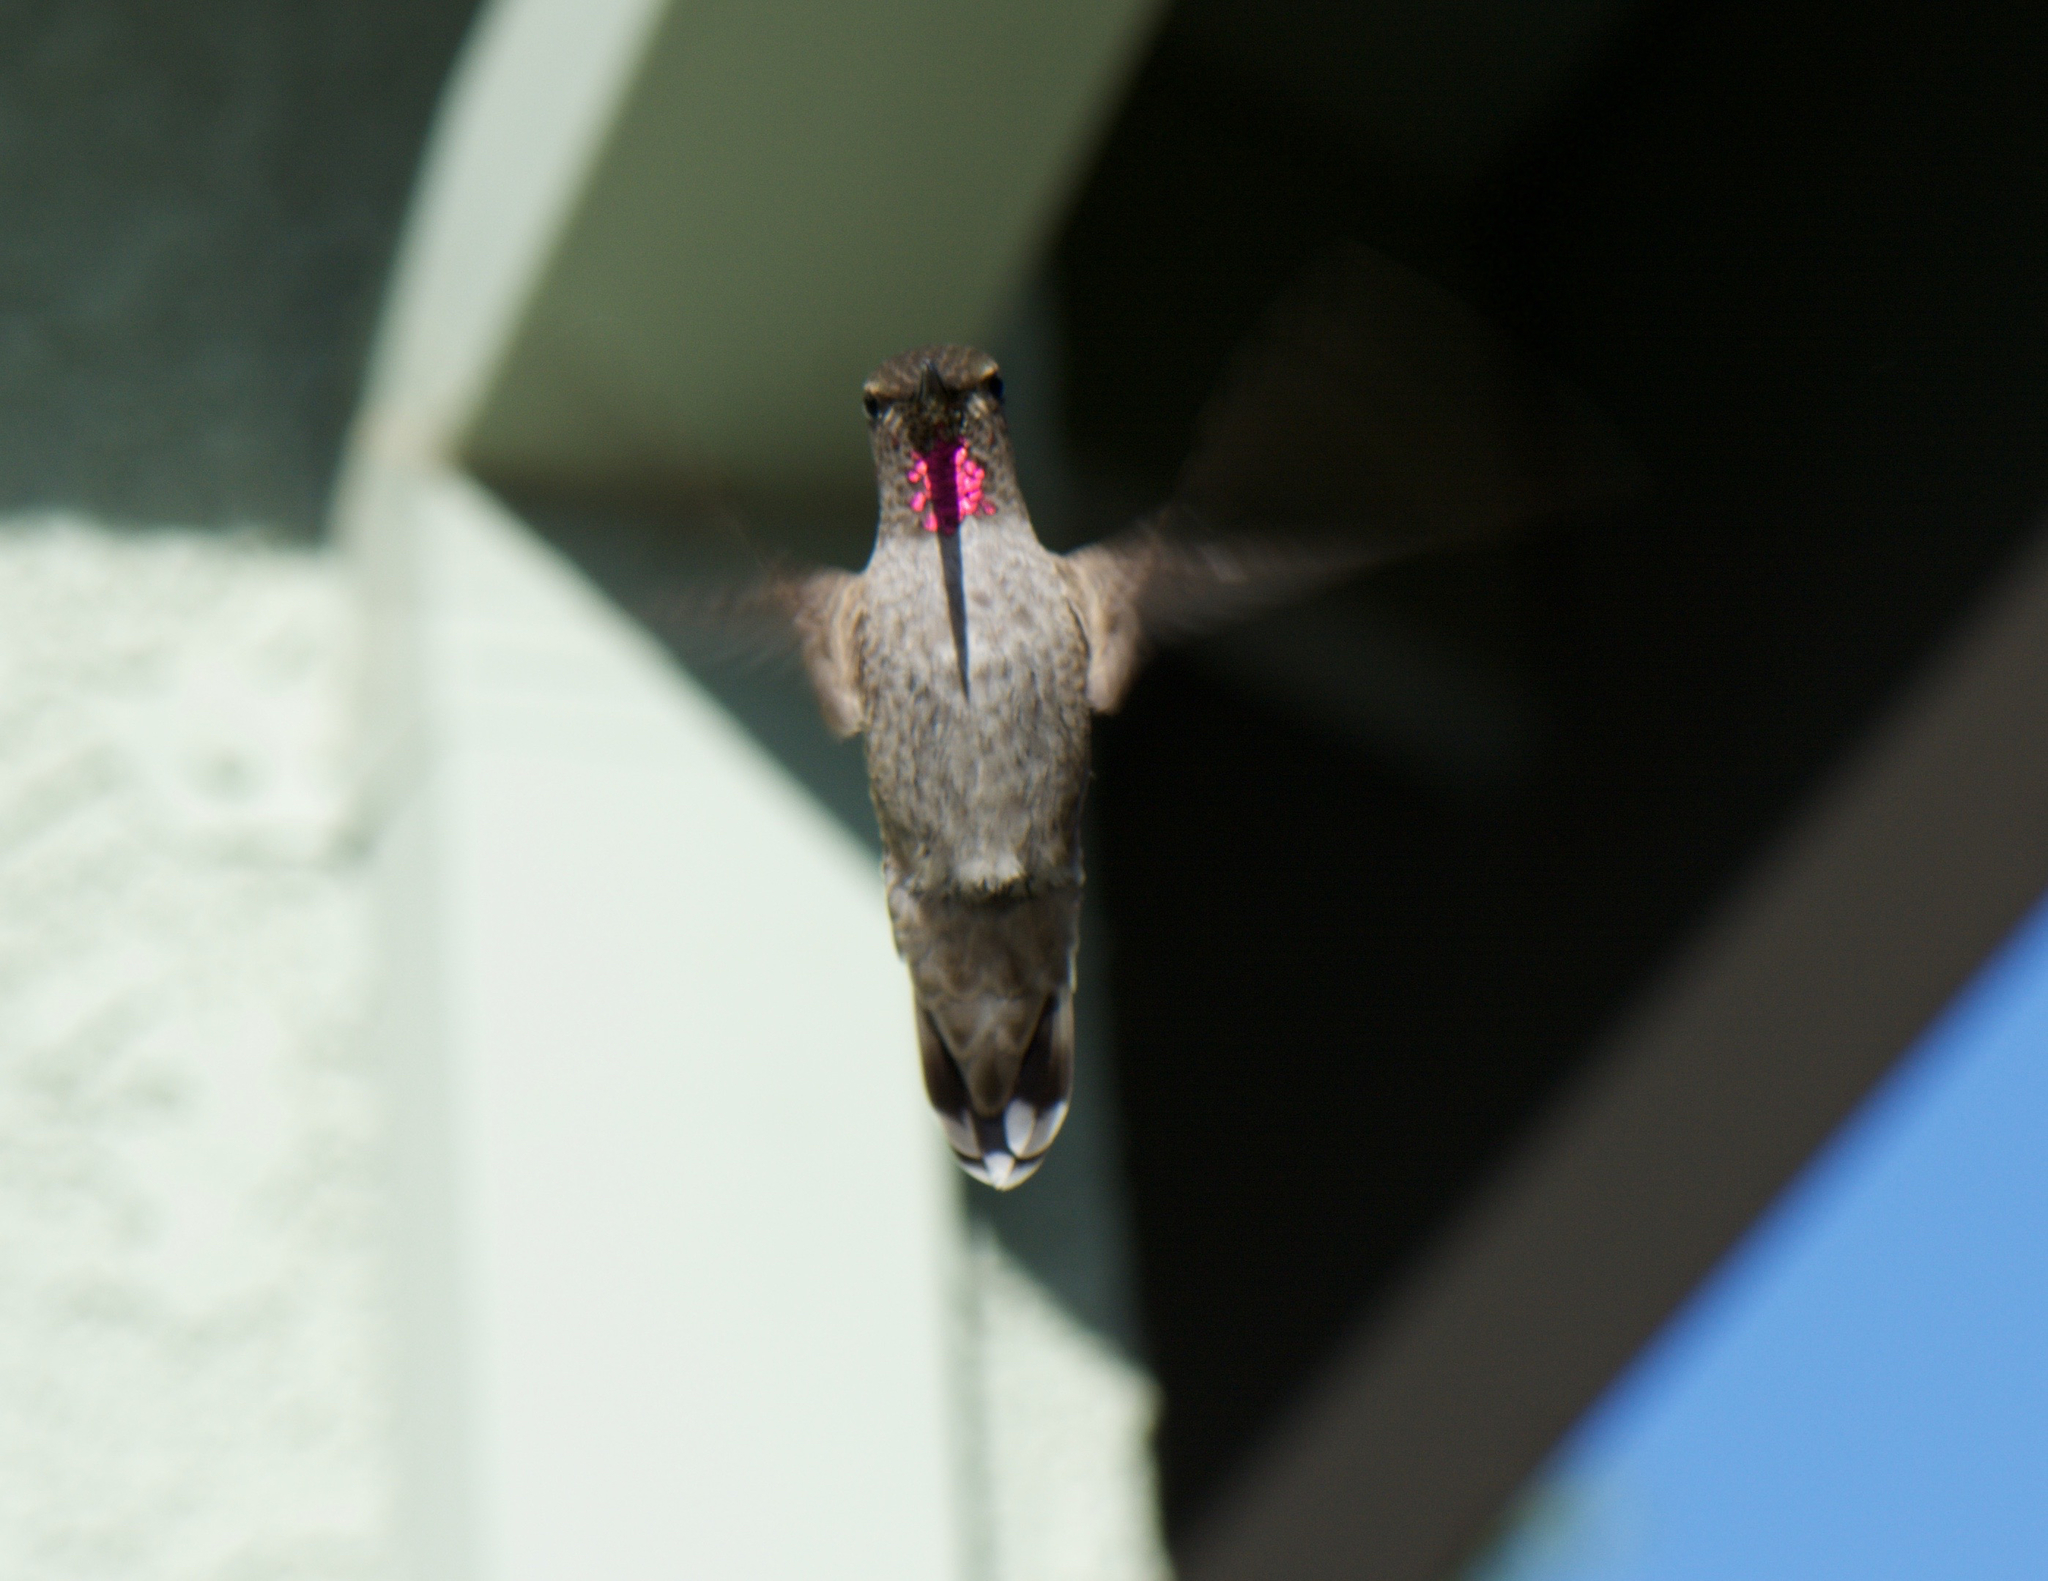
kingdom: Animalia
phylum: Chordata
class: Aves
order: Apodiformes
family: Trochilidae
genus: Calypte
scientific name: Calypte anna
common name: Anna's hummingbird
